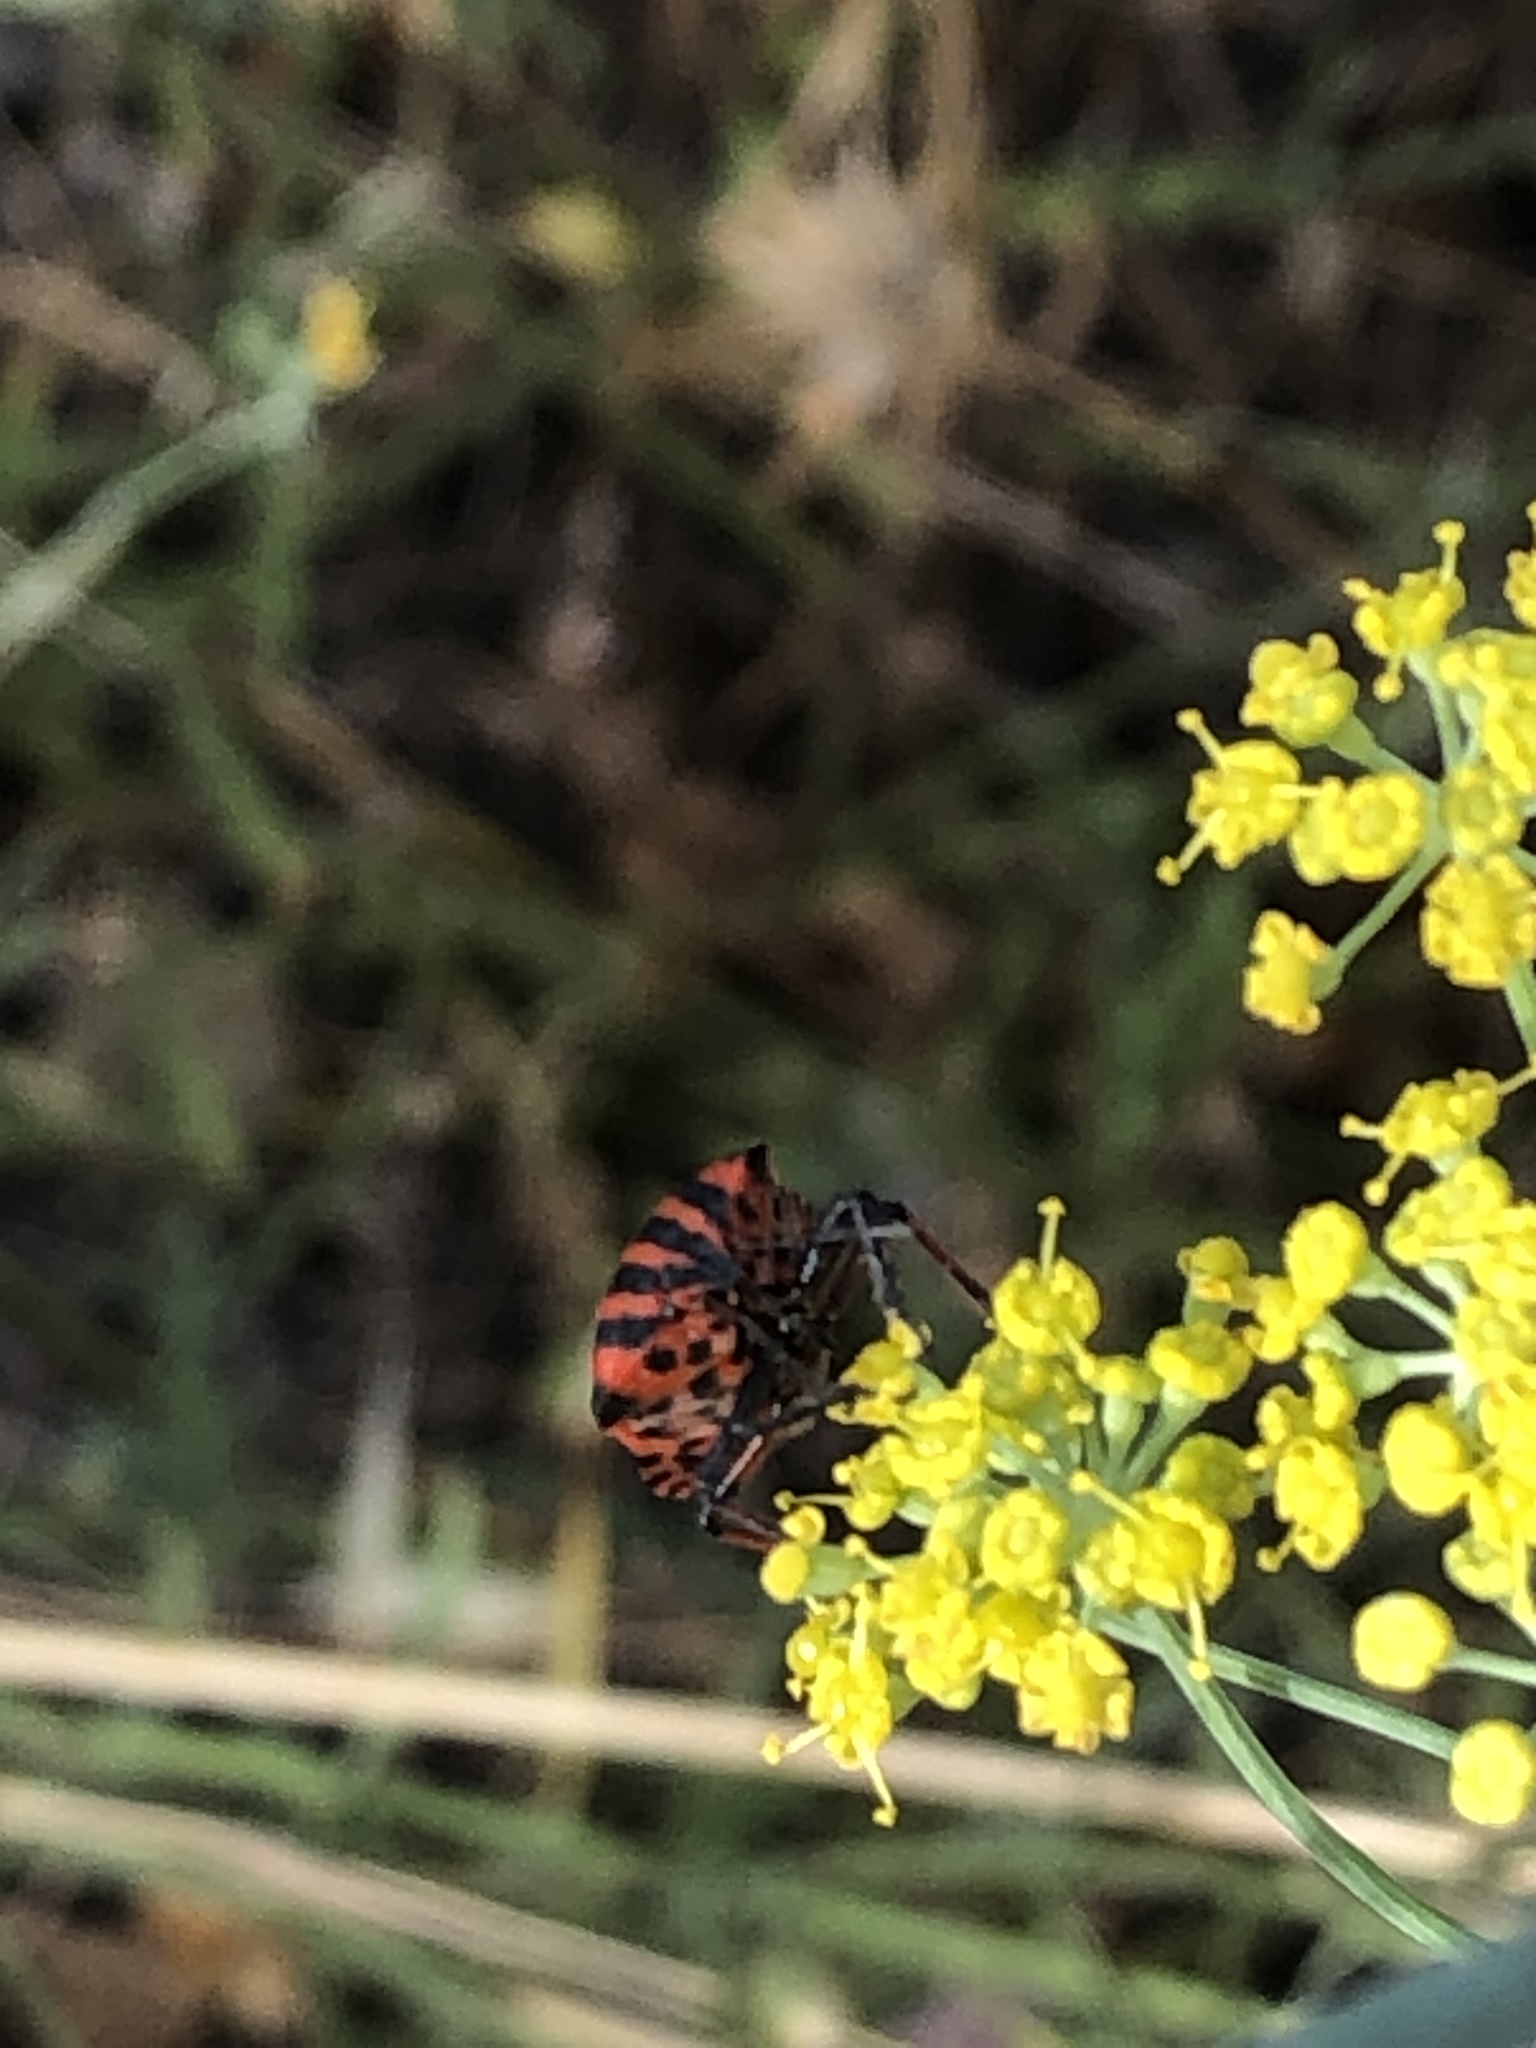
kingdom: Animalia
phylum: Arthropoda
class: Insecta
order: Hemiptera
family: Pentatomidae
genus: Graphosoma
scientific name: Graphosoma italicum
